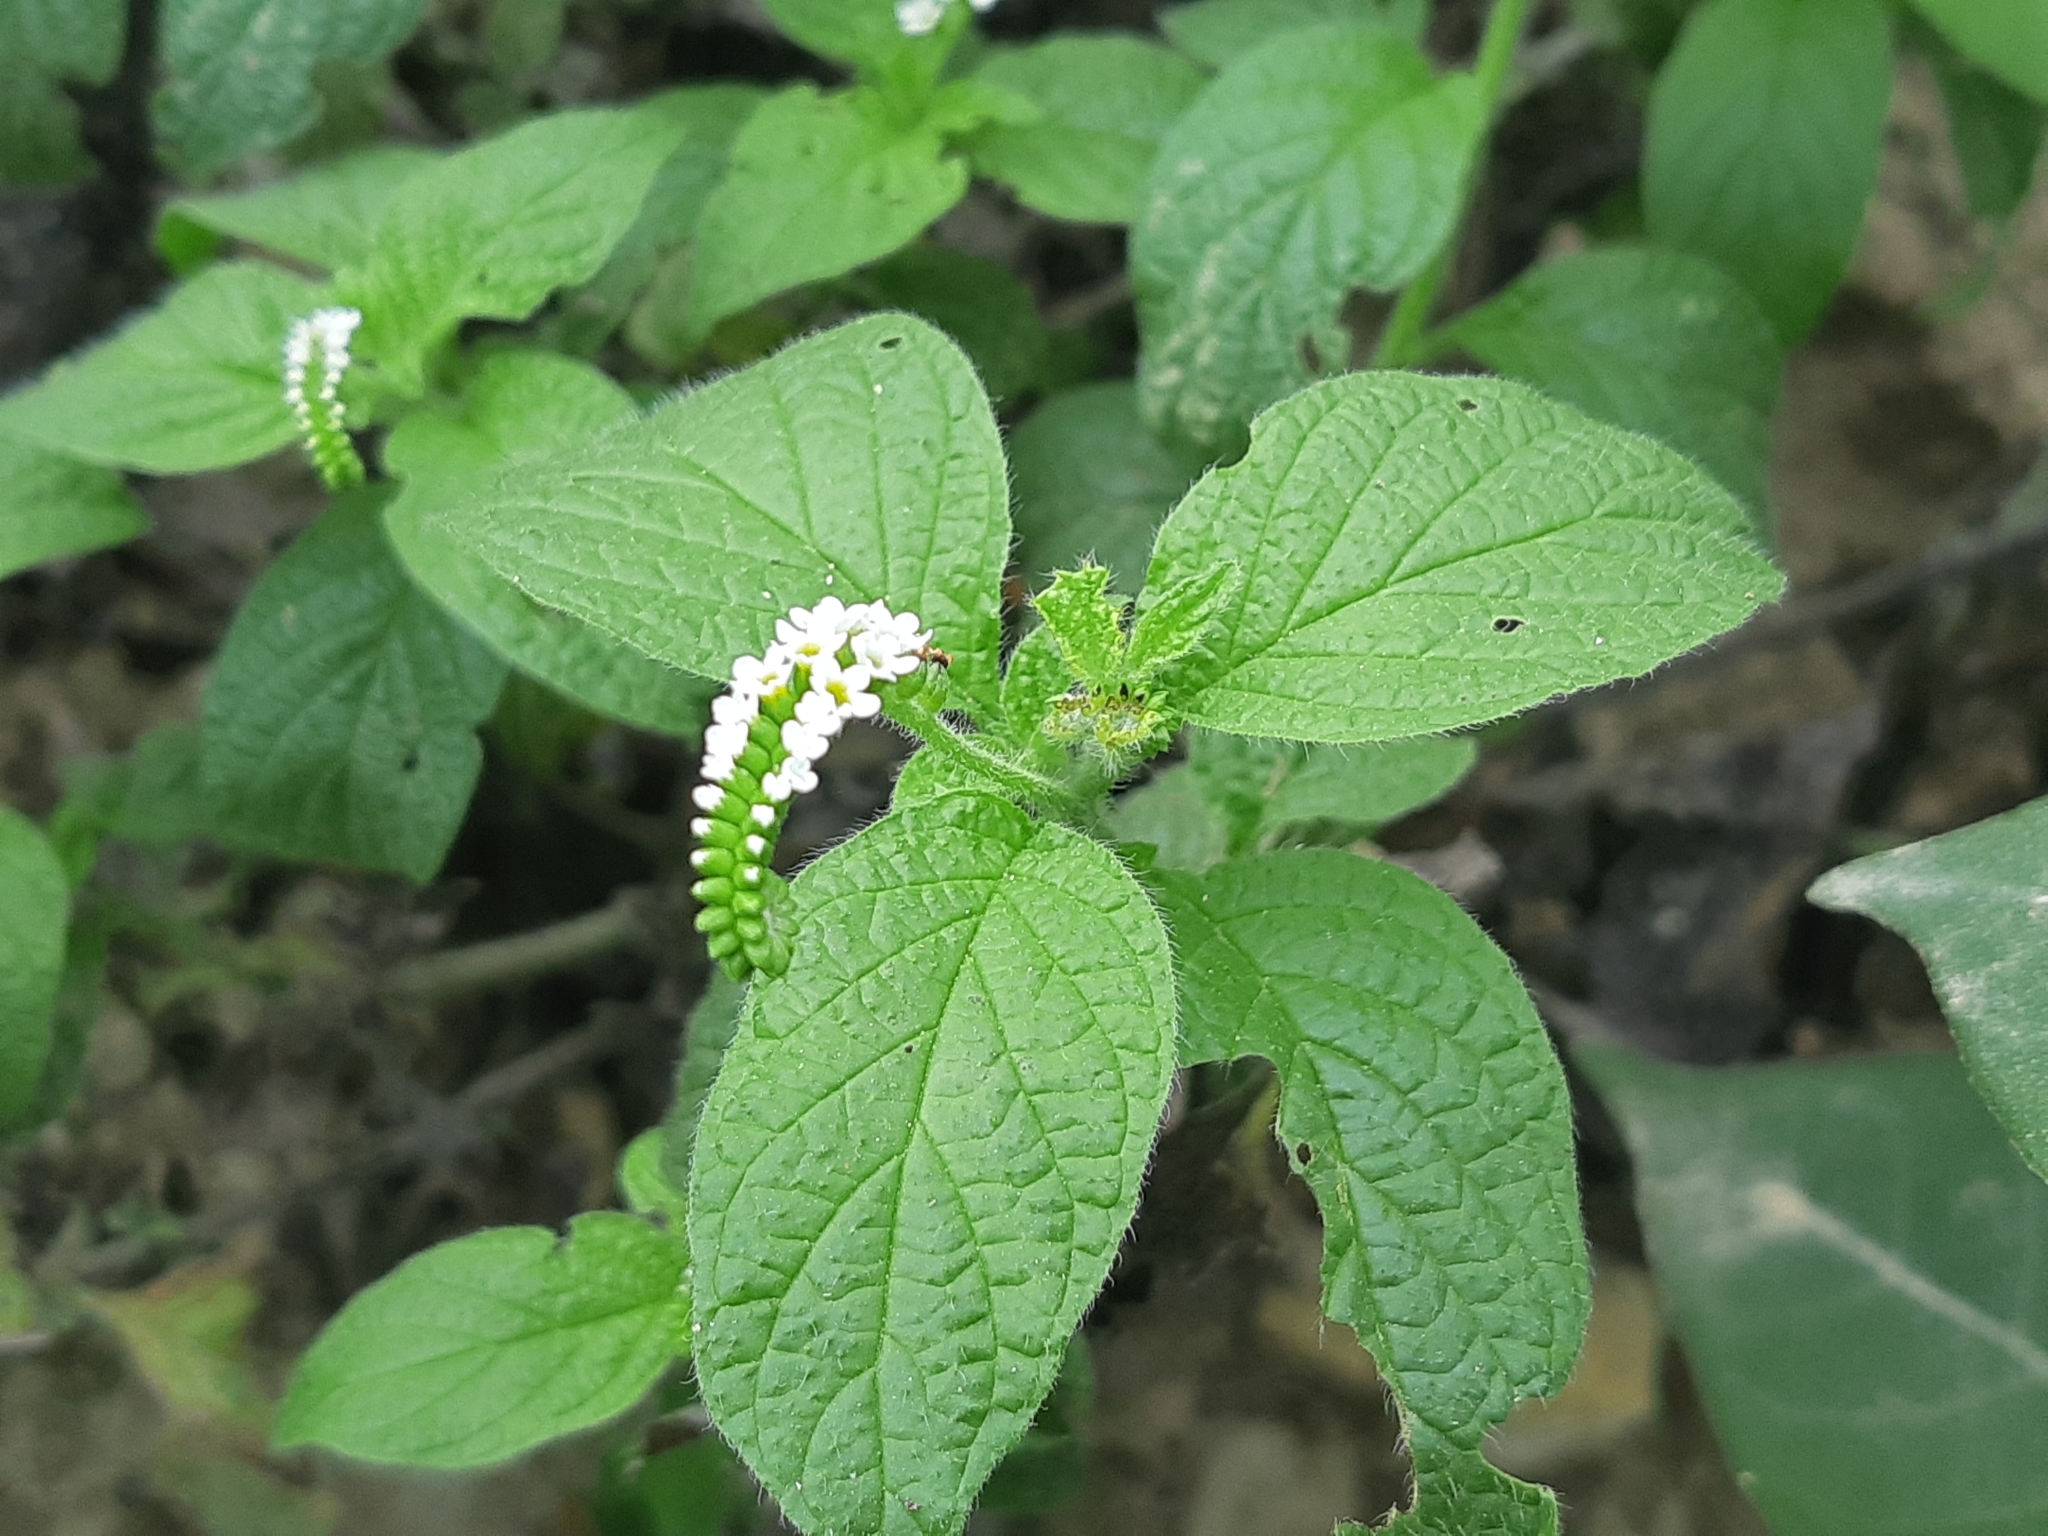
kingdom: Plantae
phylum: Tracheophyta
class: Magnoliopsida
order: Boraginales
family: Heliotropiaceae
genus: Heliotropium
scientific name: Heliotropium angiospermum
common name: Eye bright
